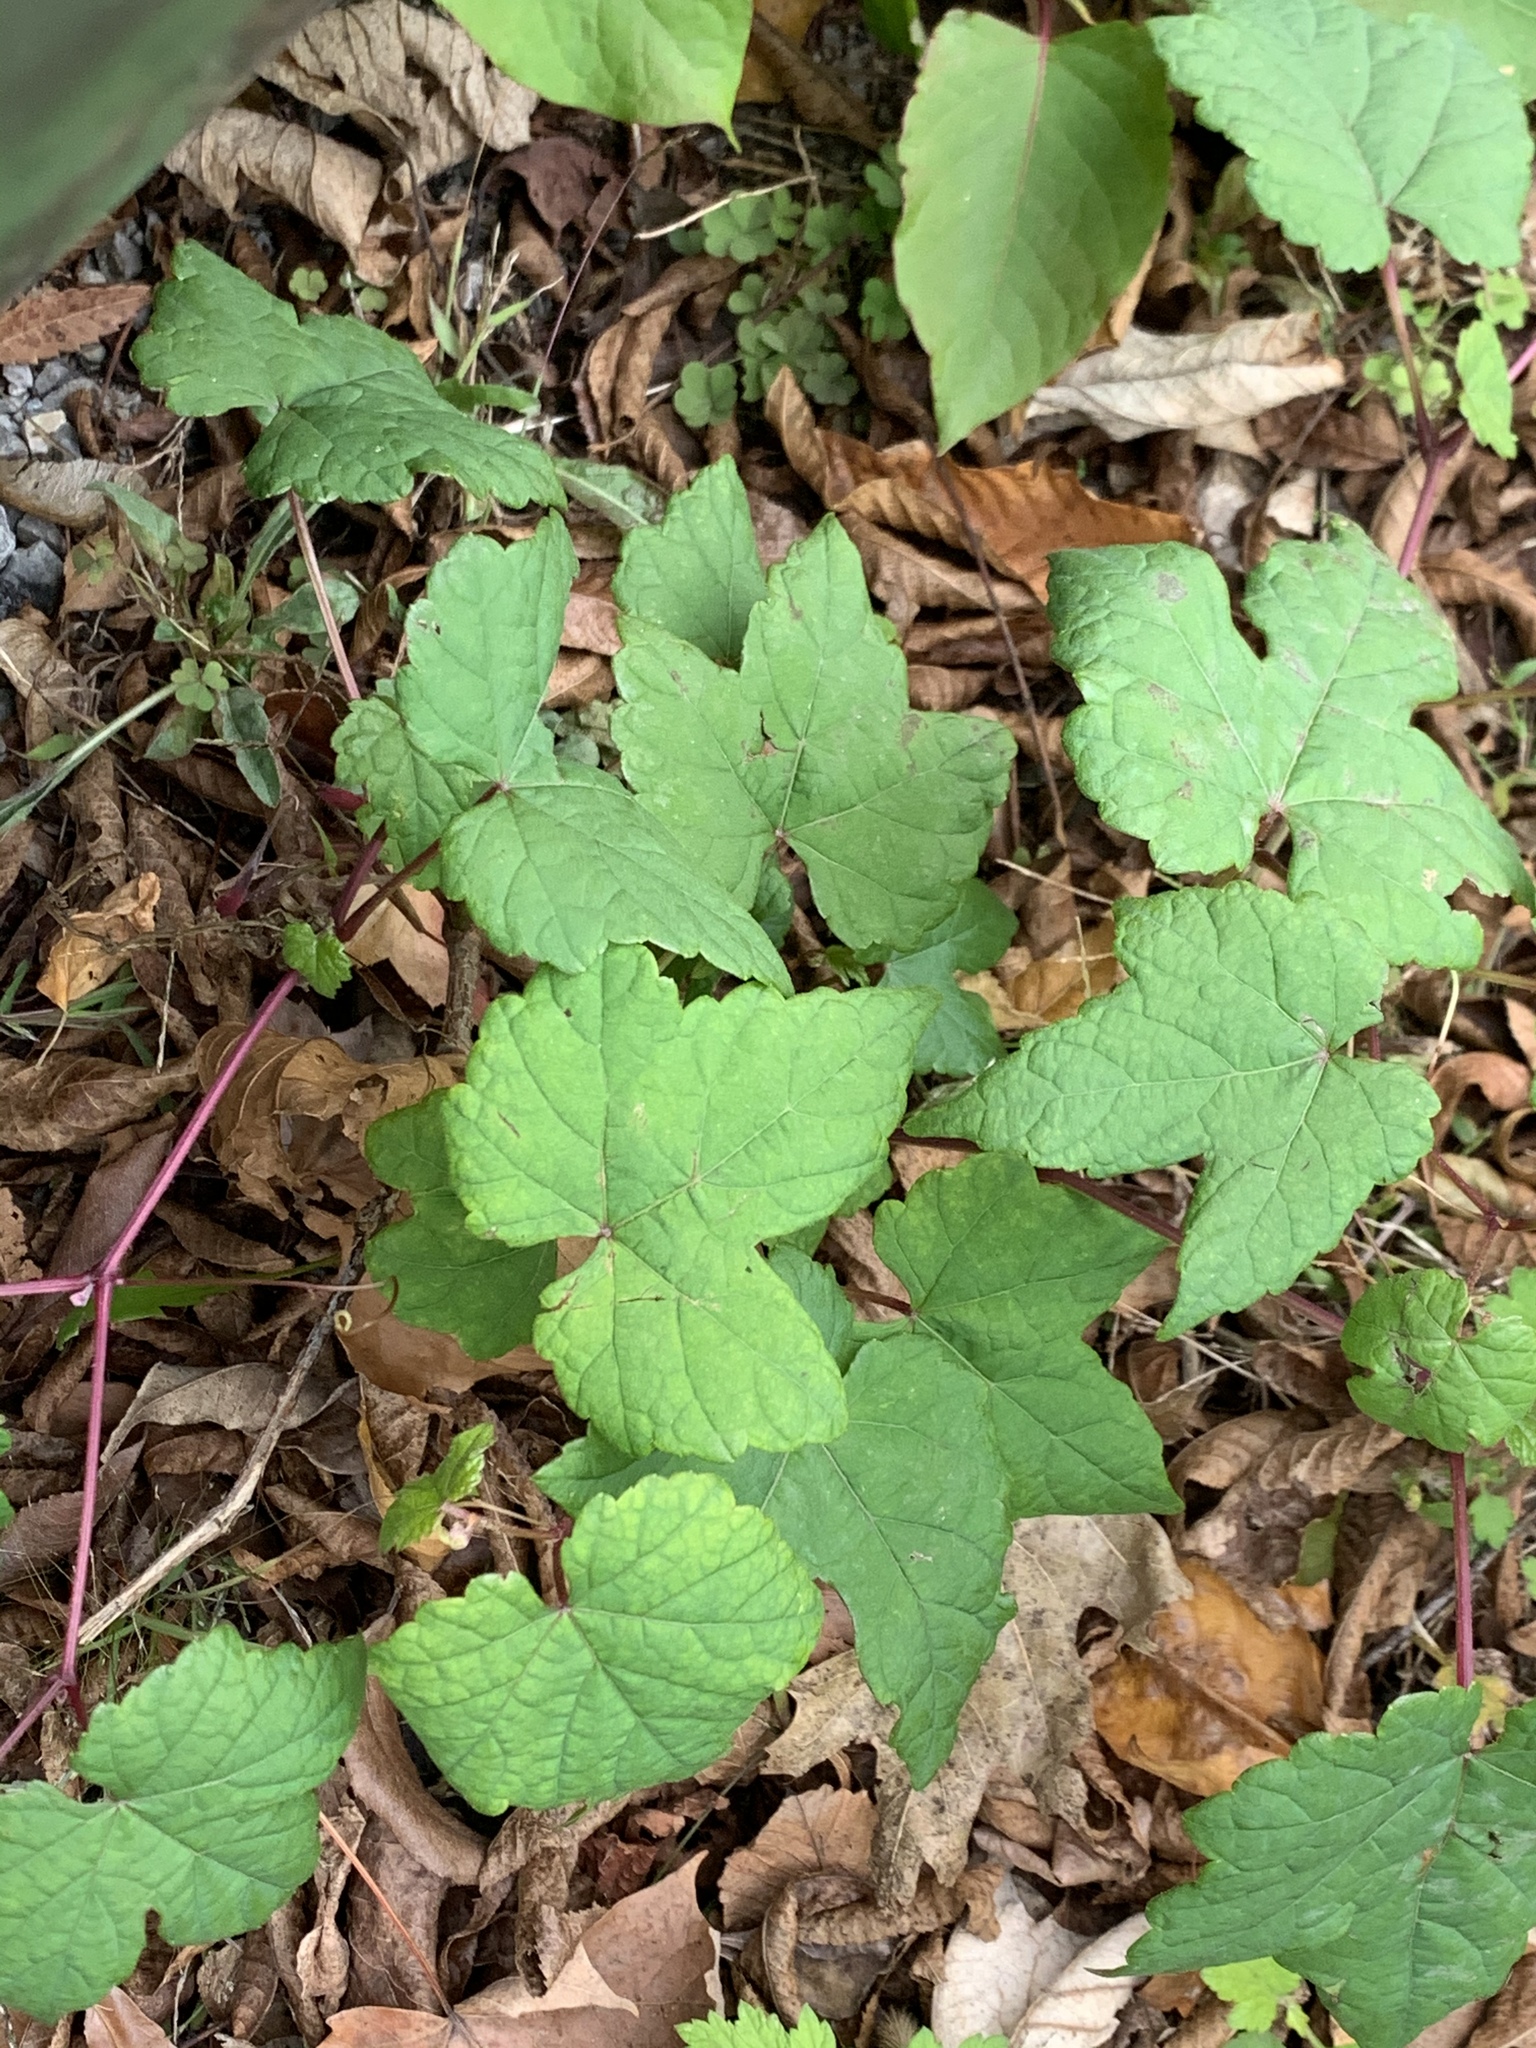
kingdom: Plantae
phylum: Tracheophyta
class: Magnoliopsida
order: Vitales
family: Vitaceae
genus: Ampelopsis
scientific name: Ampelopsis glandulosa
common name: Amur peppervine
